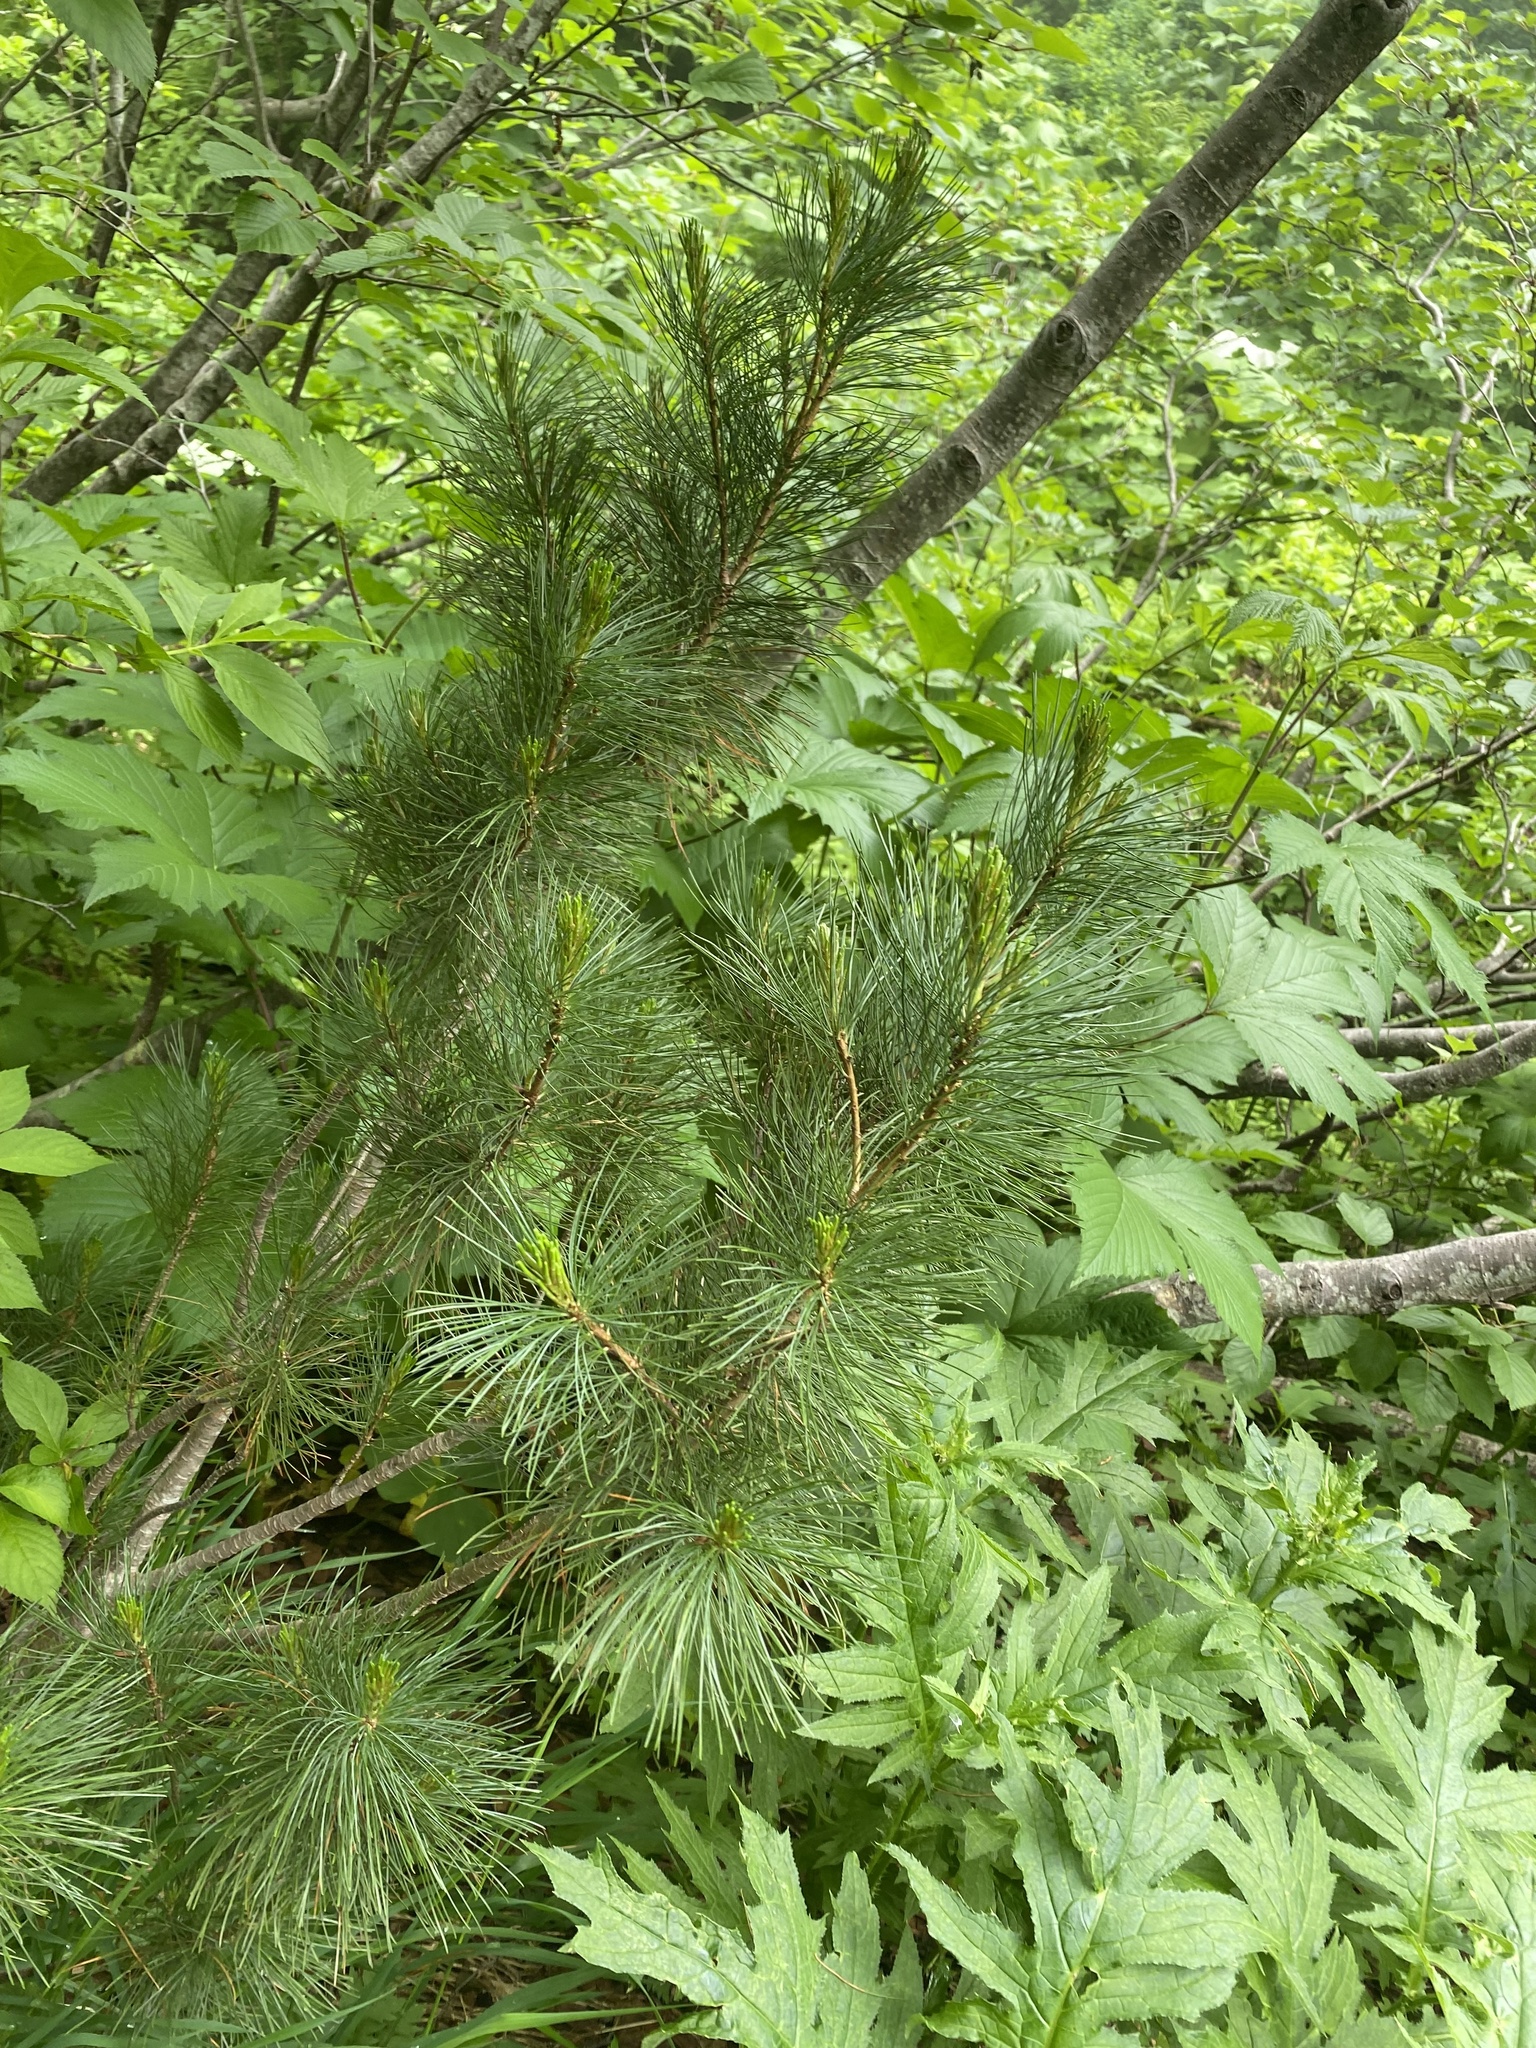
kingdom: Plantae
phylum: Tracheophyta
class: Pinopsida
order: Pinales
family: Pinaceae
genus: Pinus
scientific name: Pinus pumila
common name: Dwarf siberian pine
